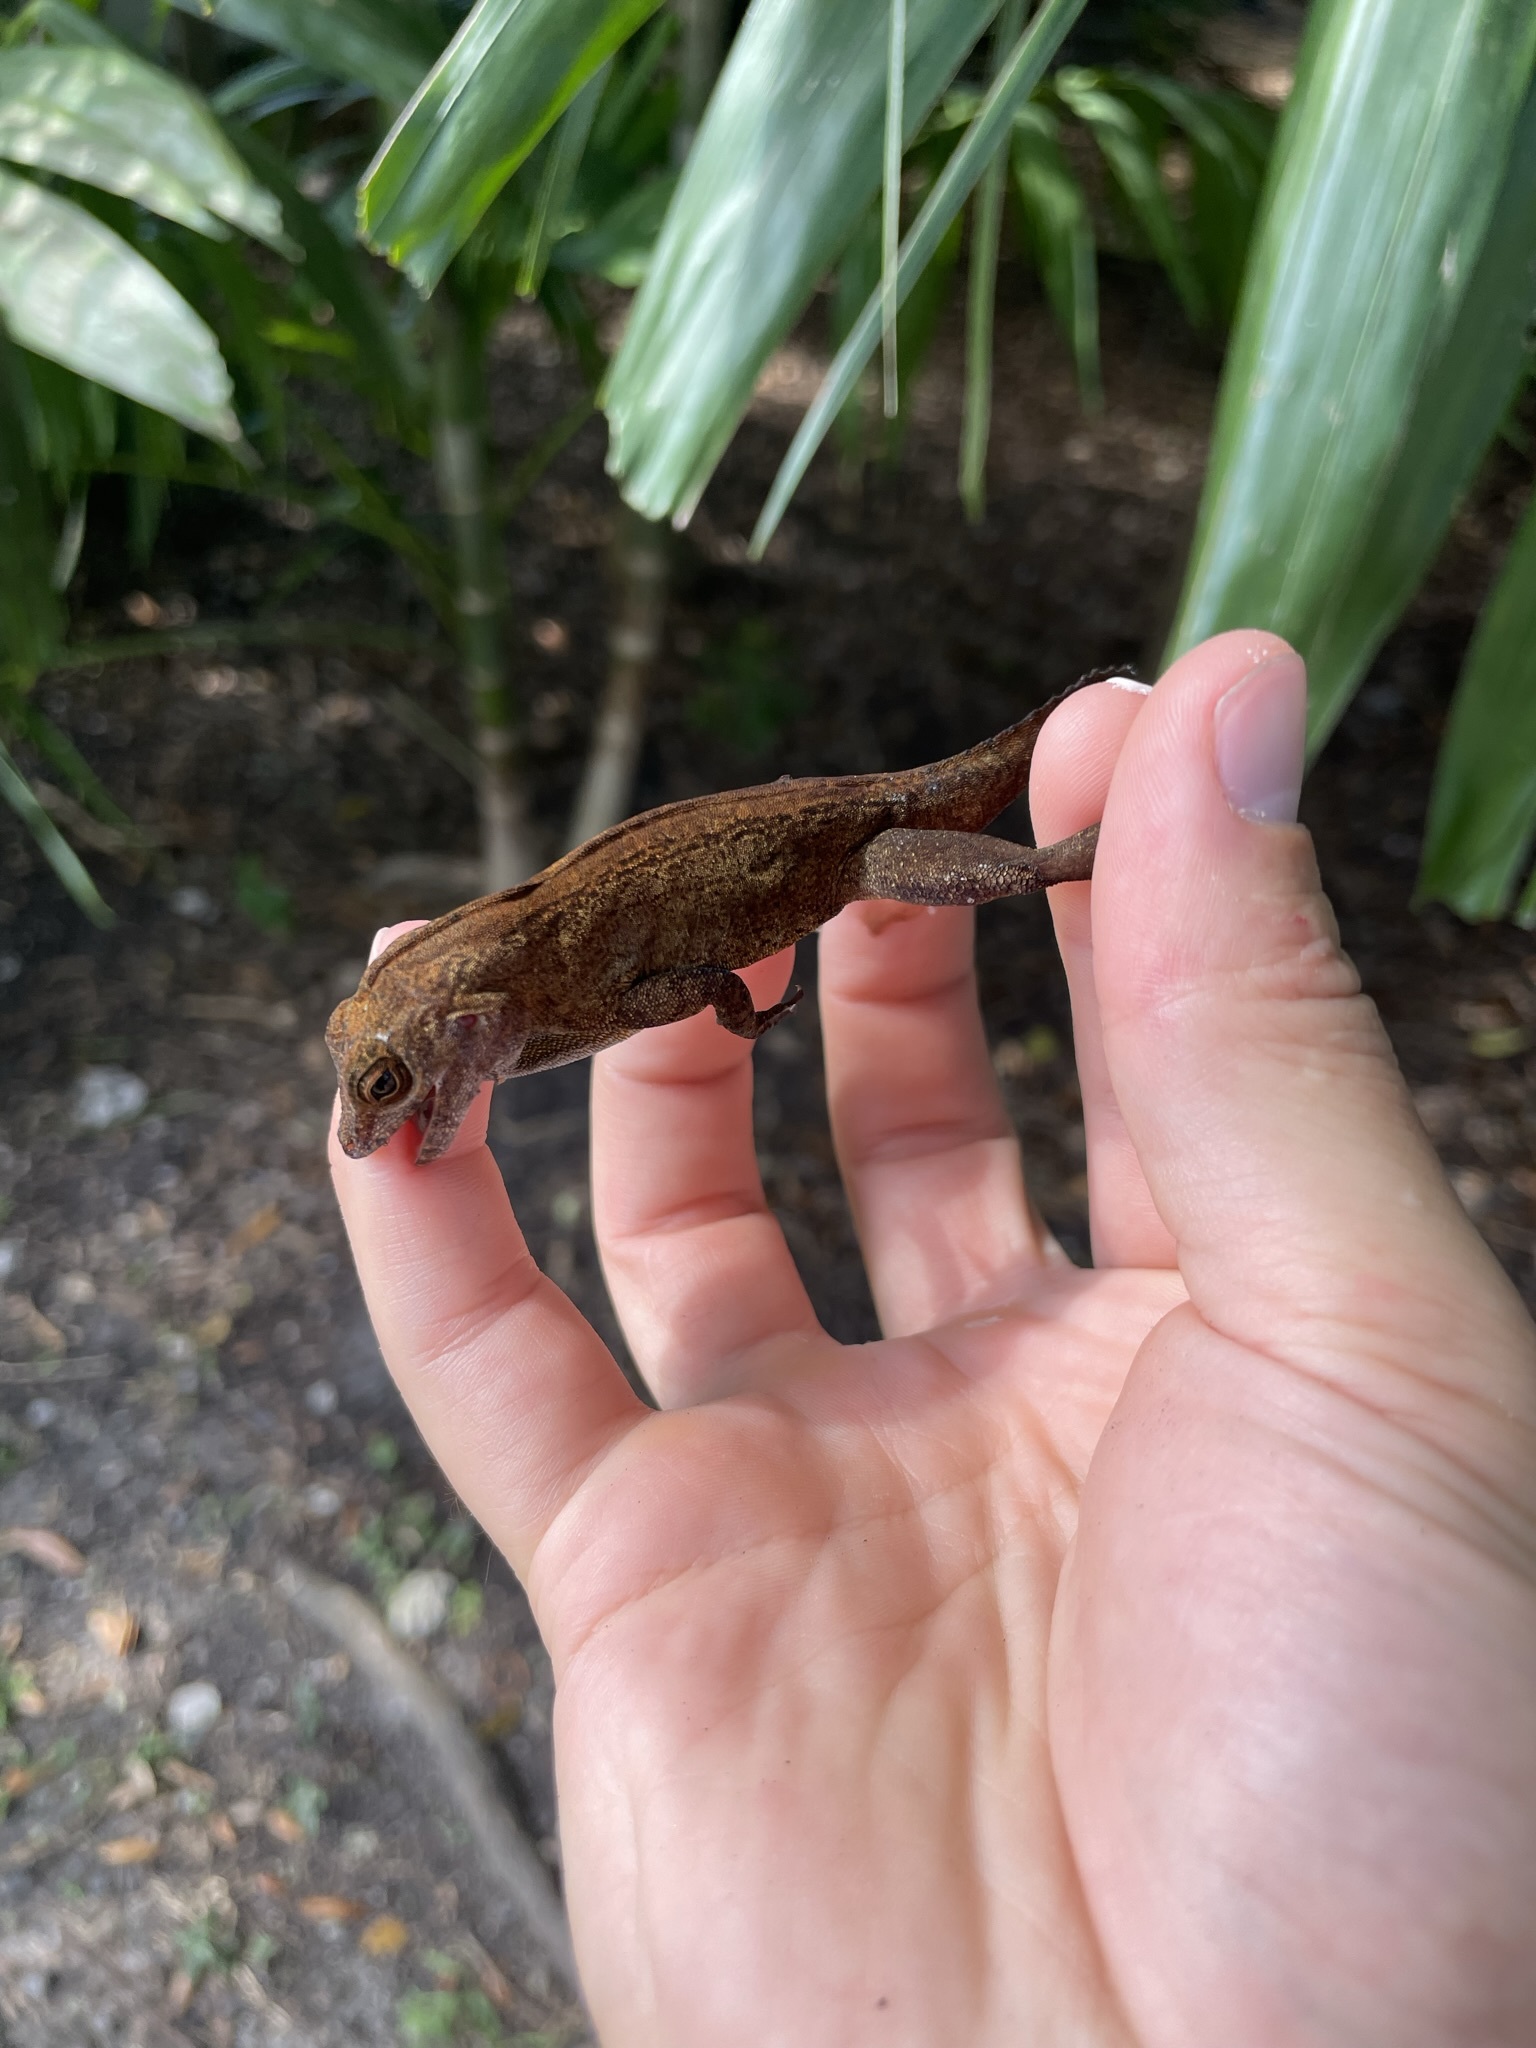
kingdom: Animalia
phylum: Chordata
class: Squamata
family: Dactyloidae
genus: Anolis
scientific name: Anolis cristatellus
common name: Crested anole
